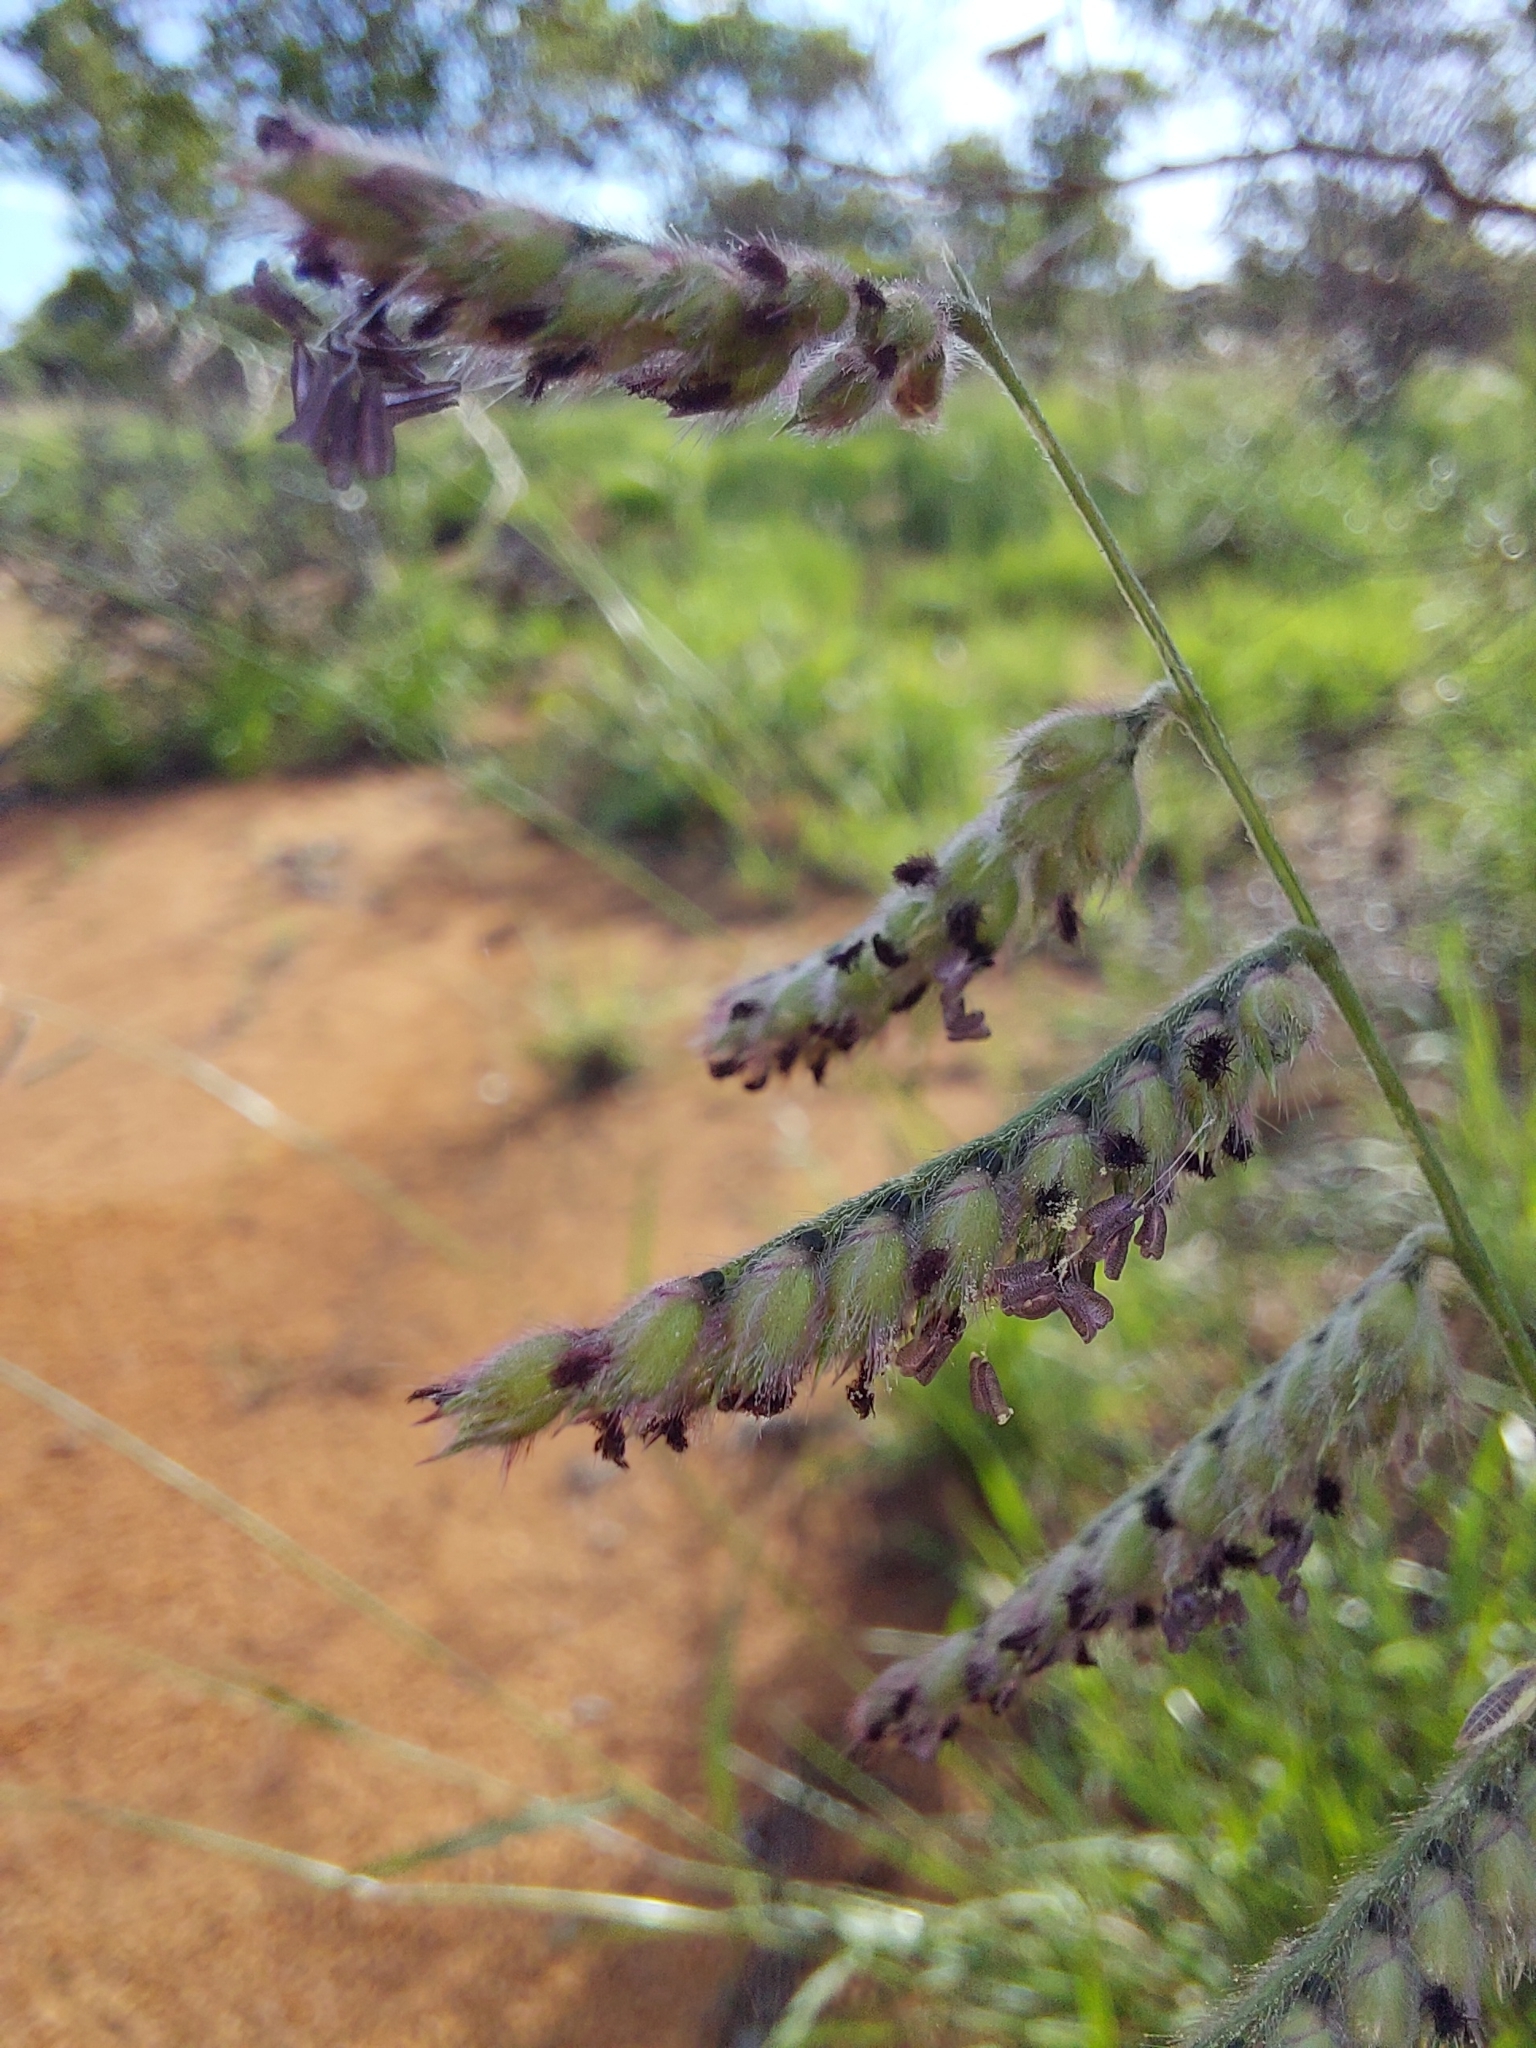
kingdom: Plantae
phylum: Tracheophyta
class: Liliopsida
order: Poales
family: Poaceae
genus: Urochloa
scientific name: Urochloa nigropedata
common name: Spotted signal grass
